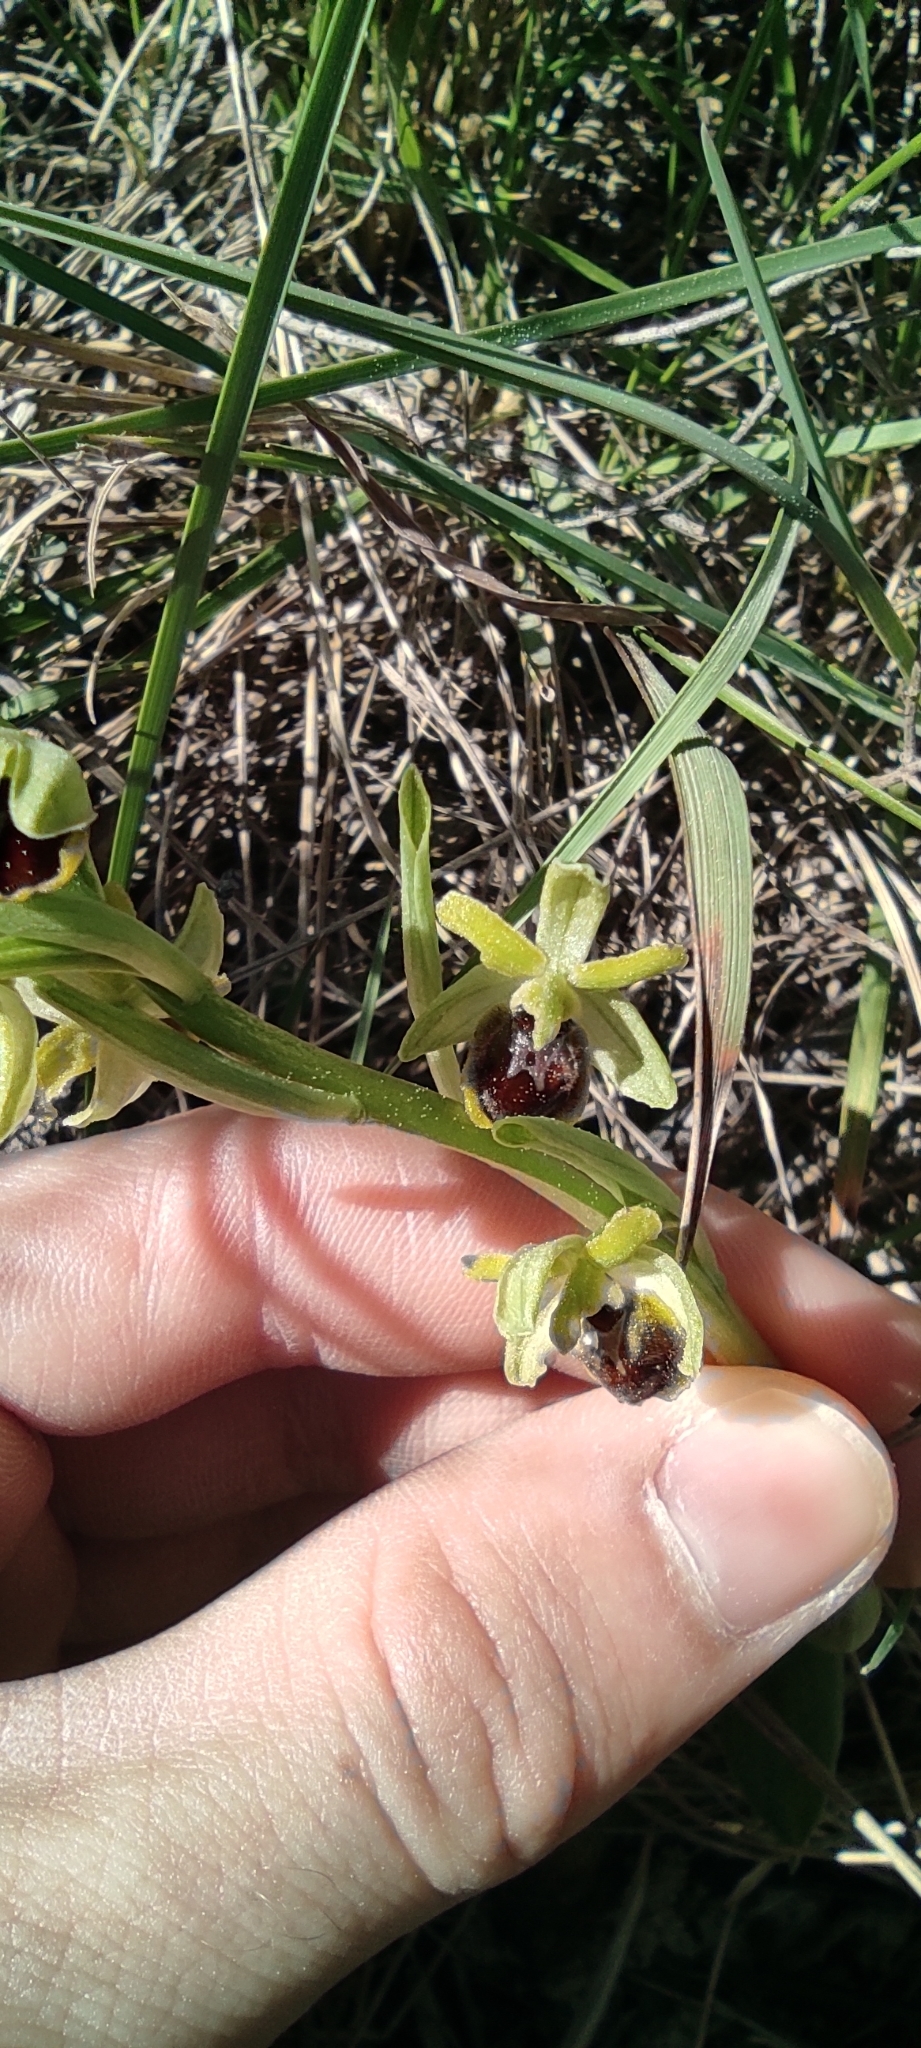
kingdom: Plantae
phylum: Tracheophyta
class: Liliopsida
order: Asparagales
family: Orchidaceae
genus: Ophrys
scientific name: Ophrys araneola
